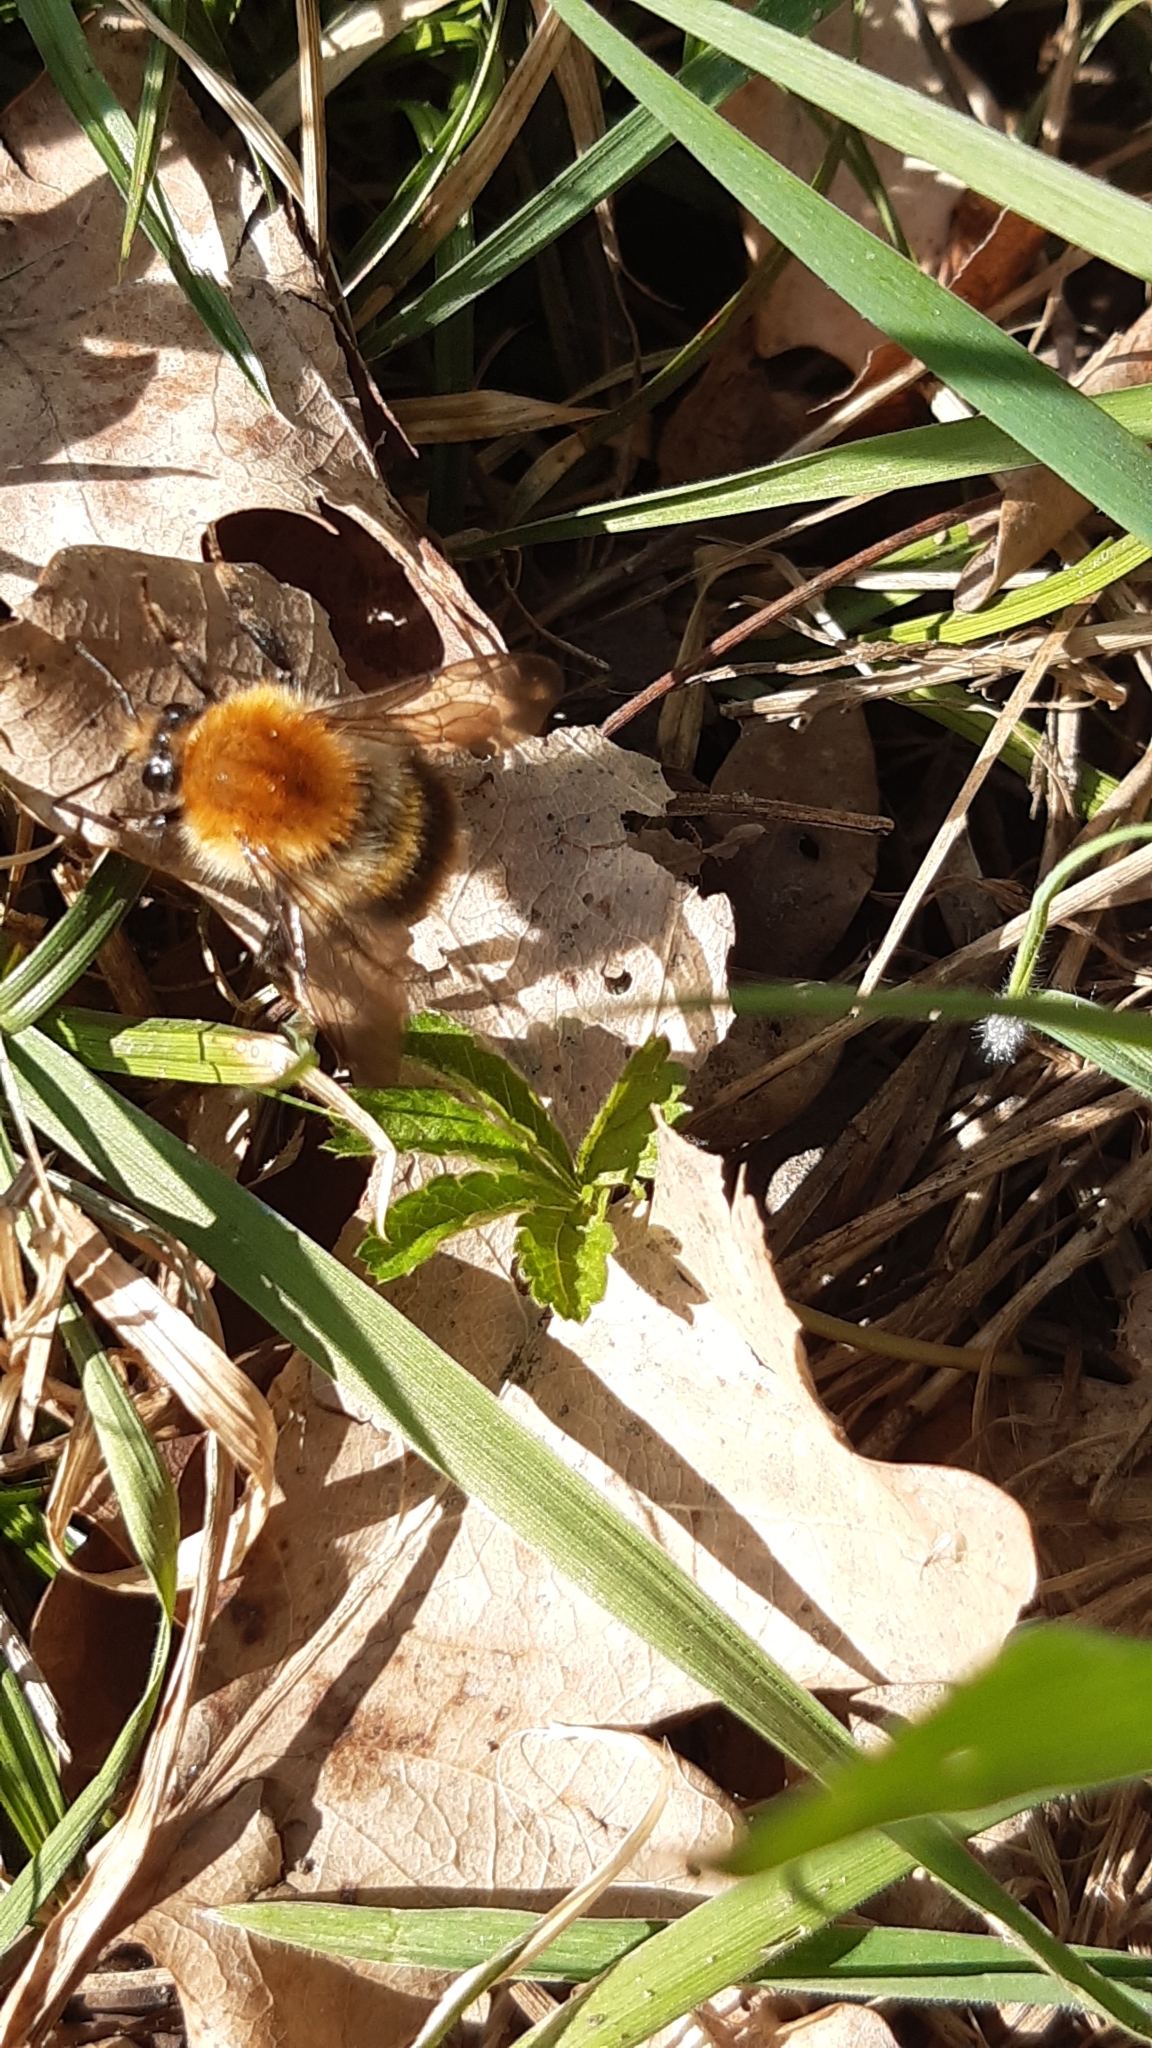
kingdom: Animalia
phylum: Arthropoda
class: Insecta
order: Hymenoptera
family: Apidae
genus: Bombus
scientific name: Bombus pascuorum
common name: Common carder bee
